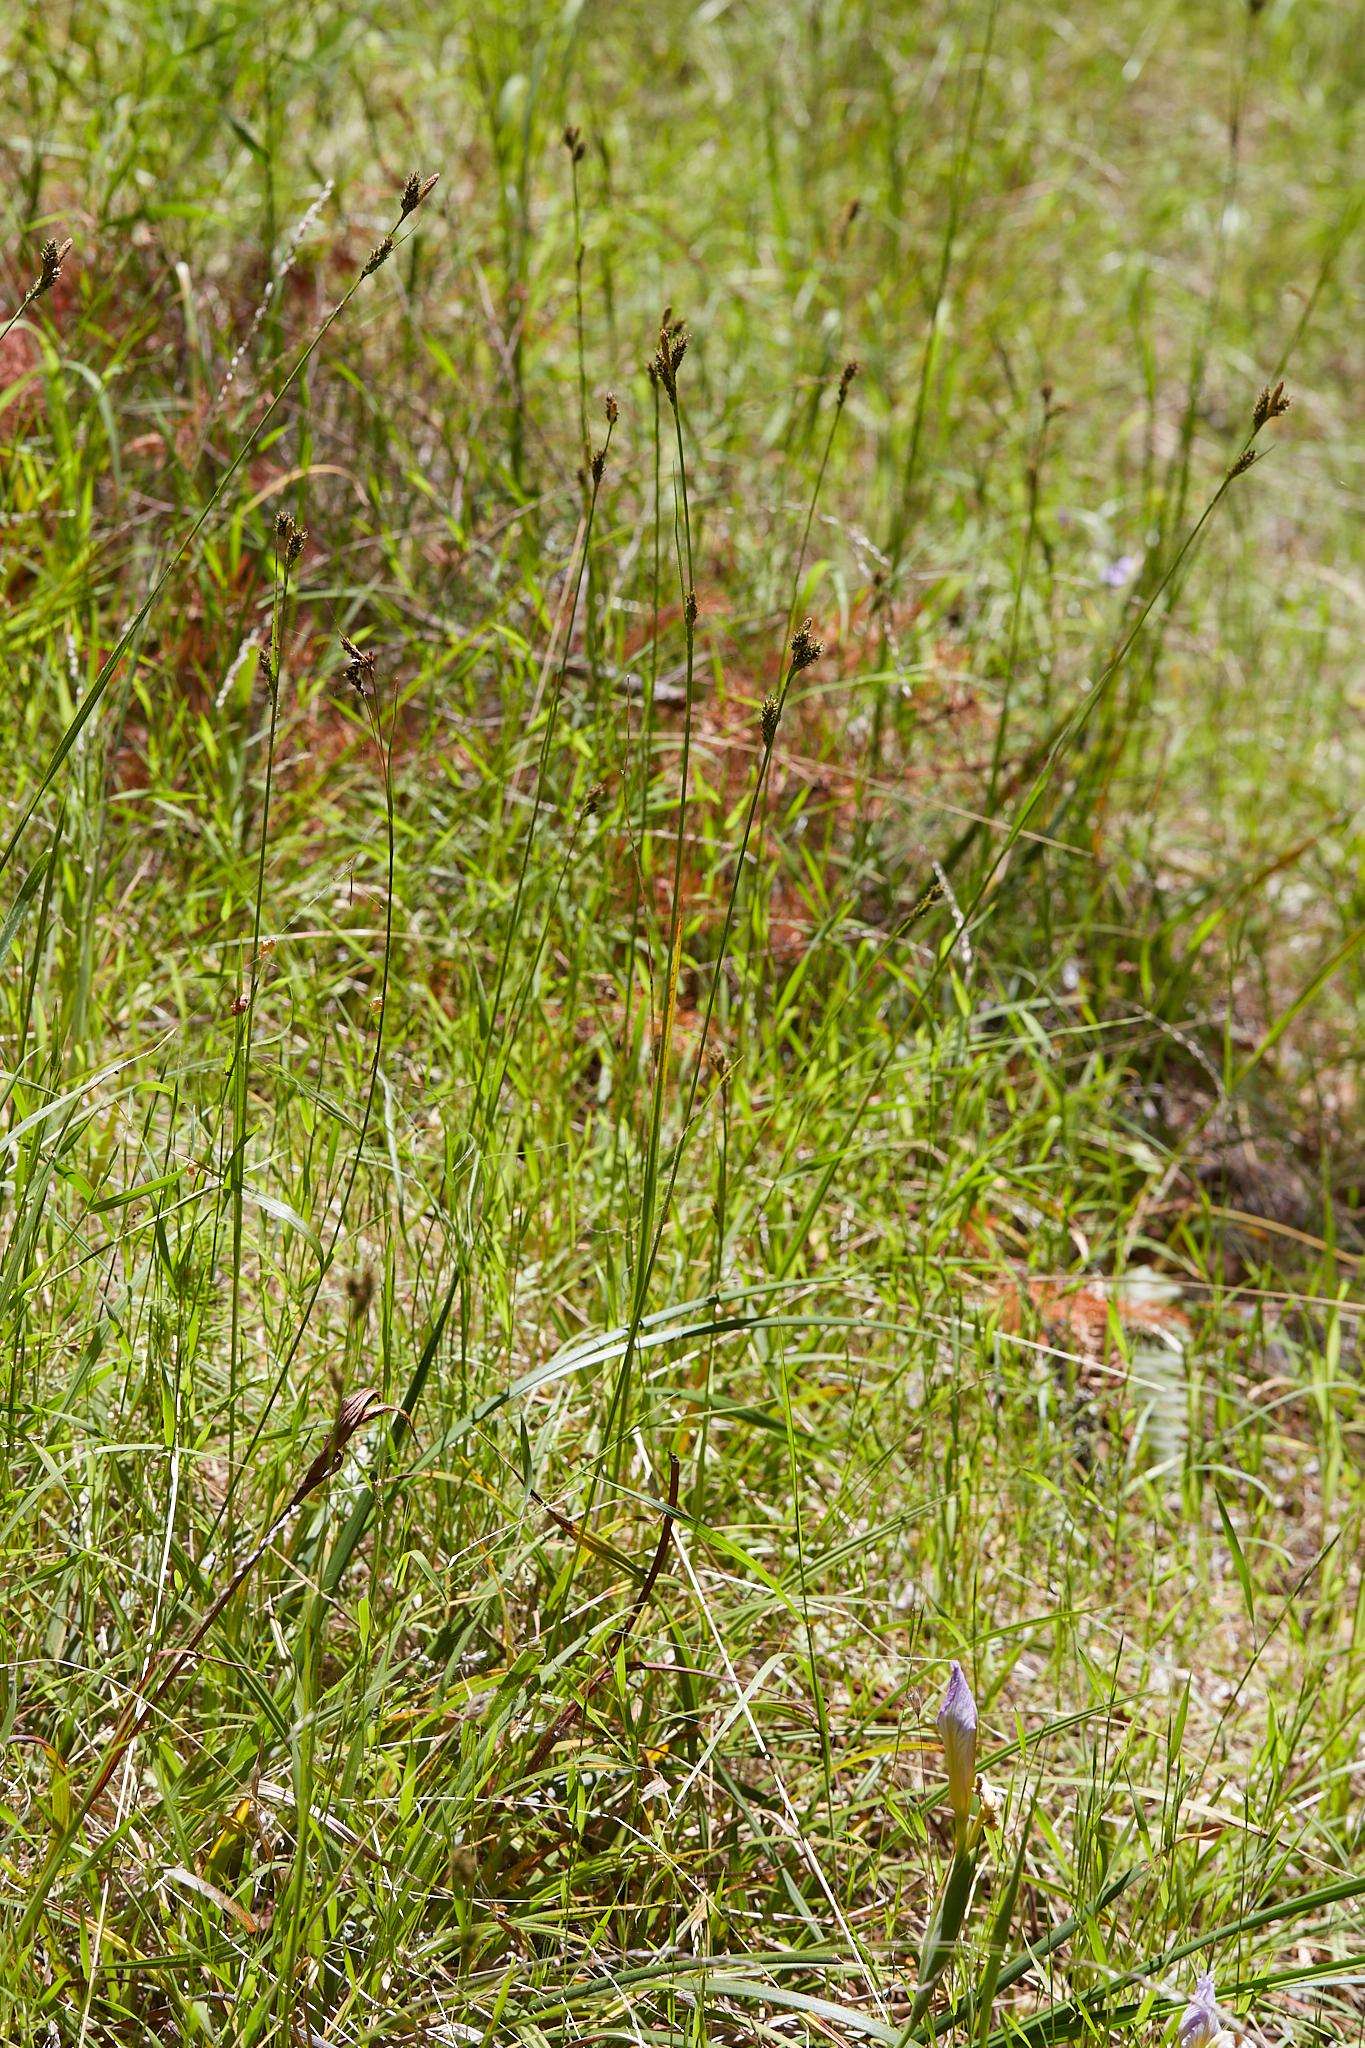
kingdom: Plantae
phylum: Tracheophyta
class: Liliopsida
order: Poales
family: Cyperaceae
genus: Carex
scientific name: Carex gynodynama
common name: Olney's hairy sedge
